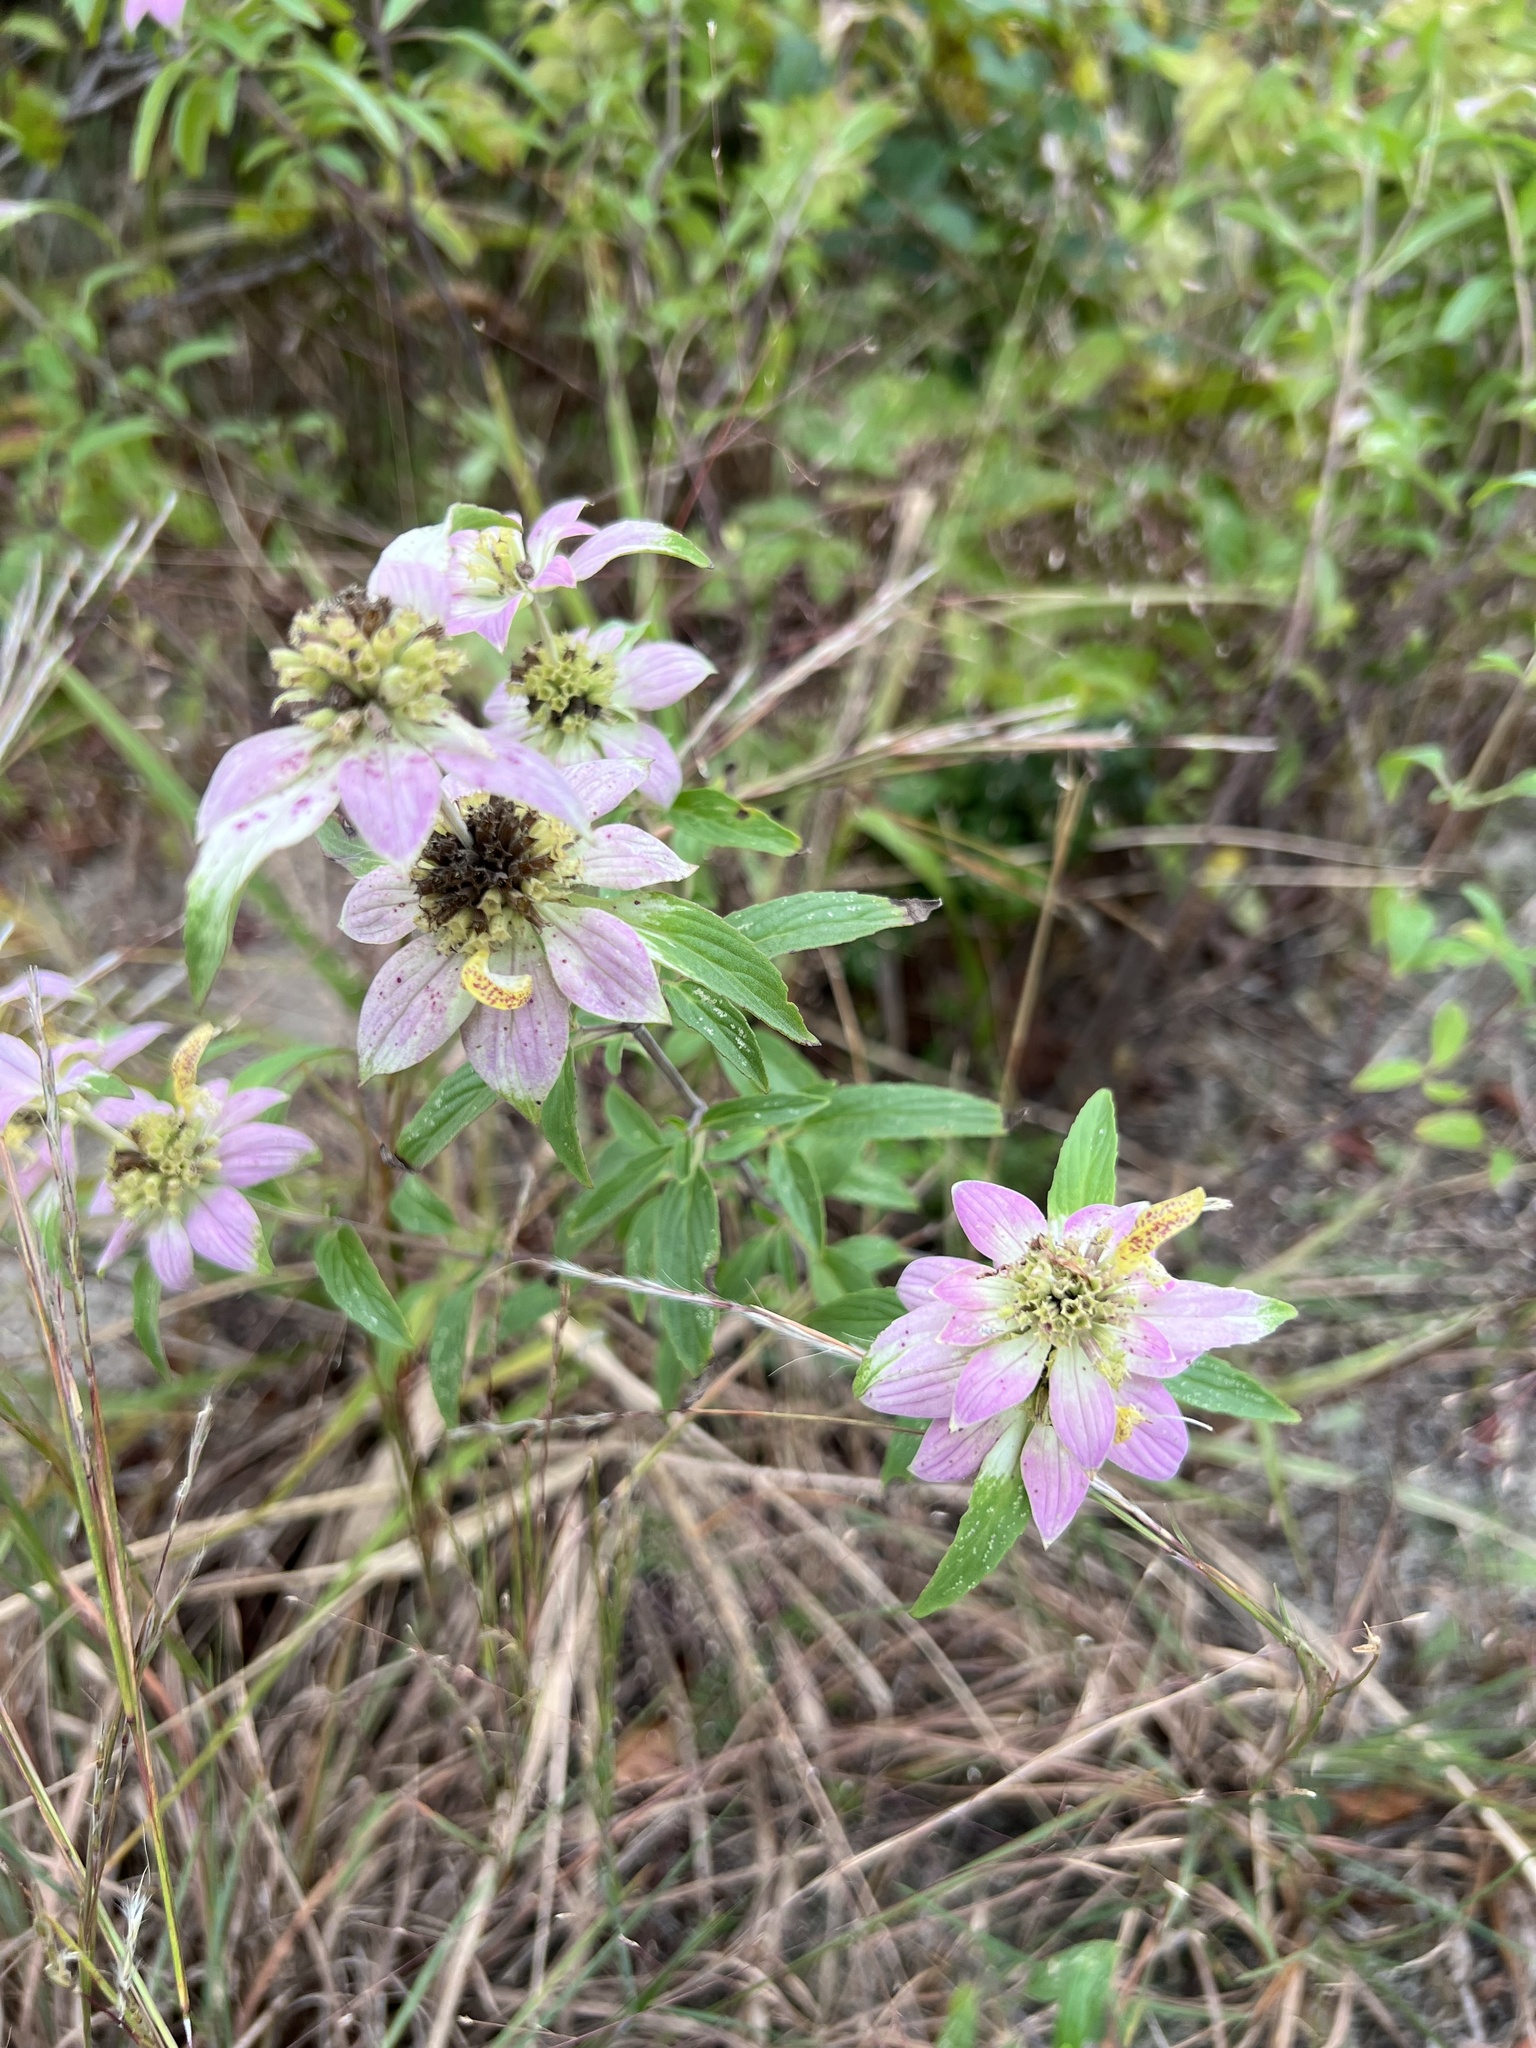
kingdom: Plantae
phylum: Tracheophyta
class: Magnoliopsida
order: Lamiales
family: Lamiaceae
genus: Monarda
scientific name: Monarda punctata
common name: Dotted monarda
